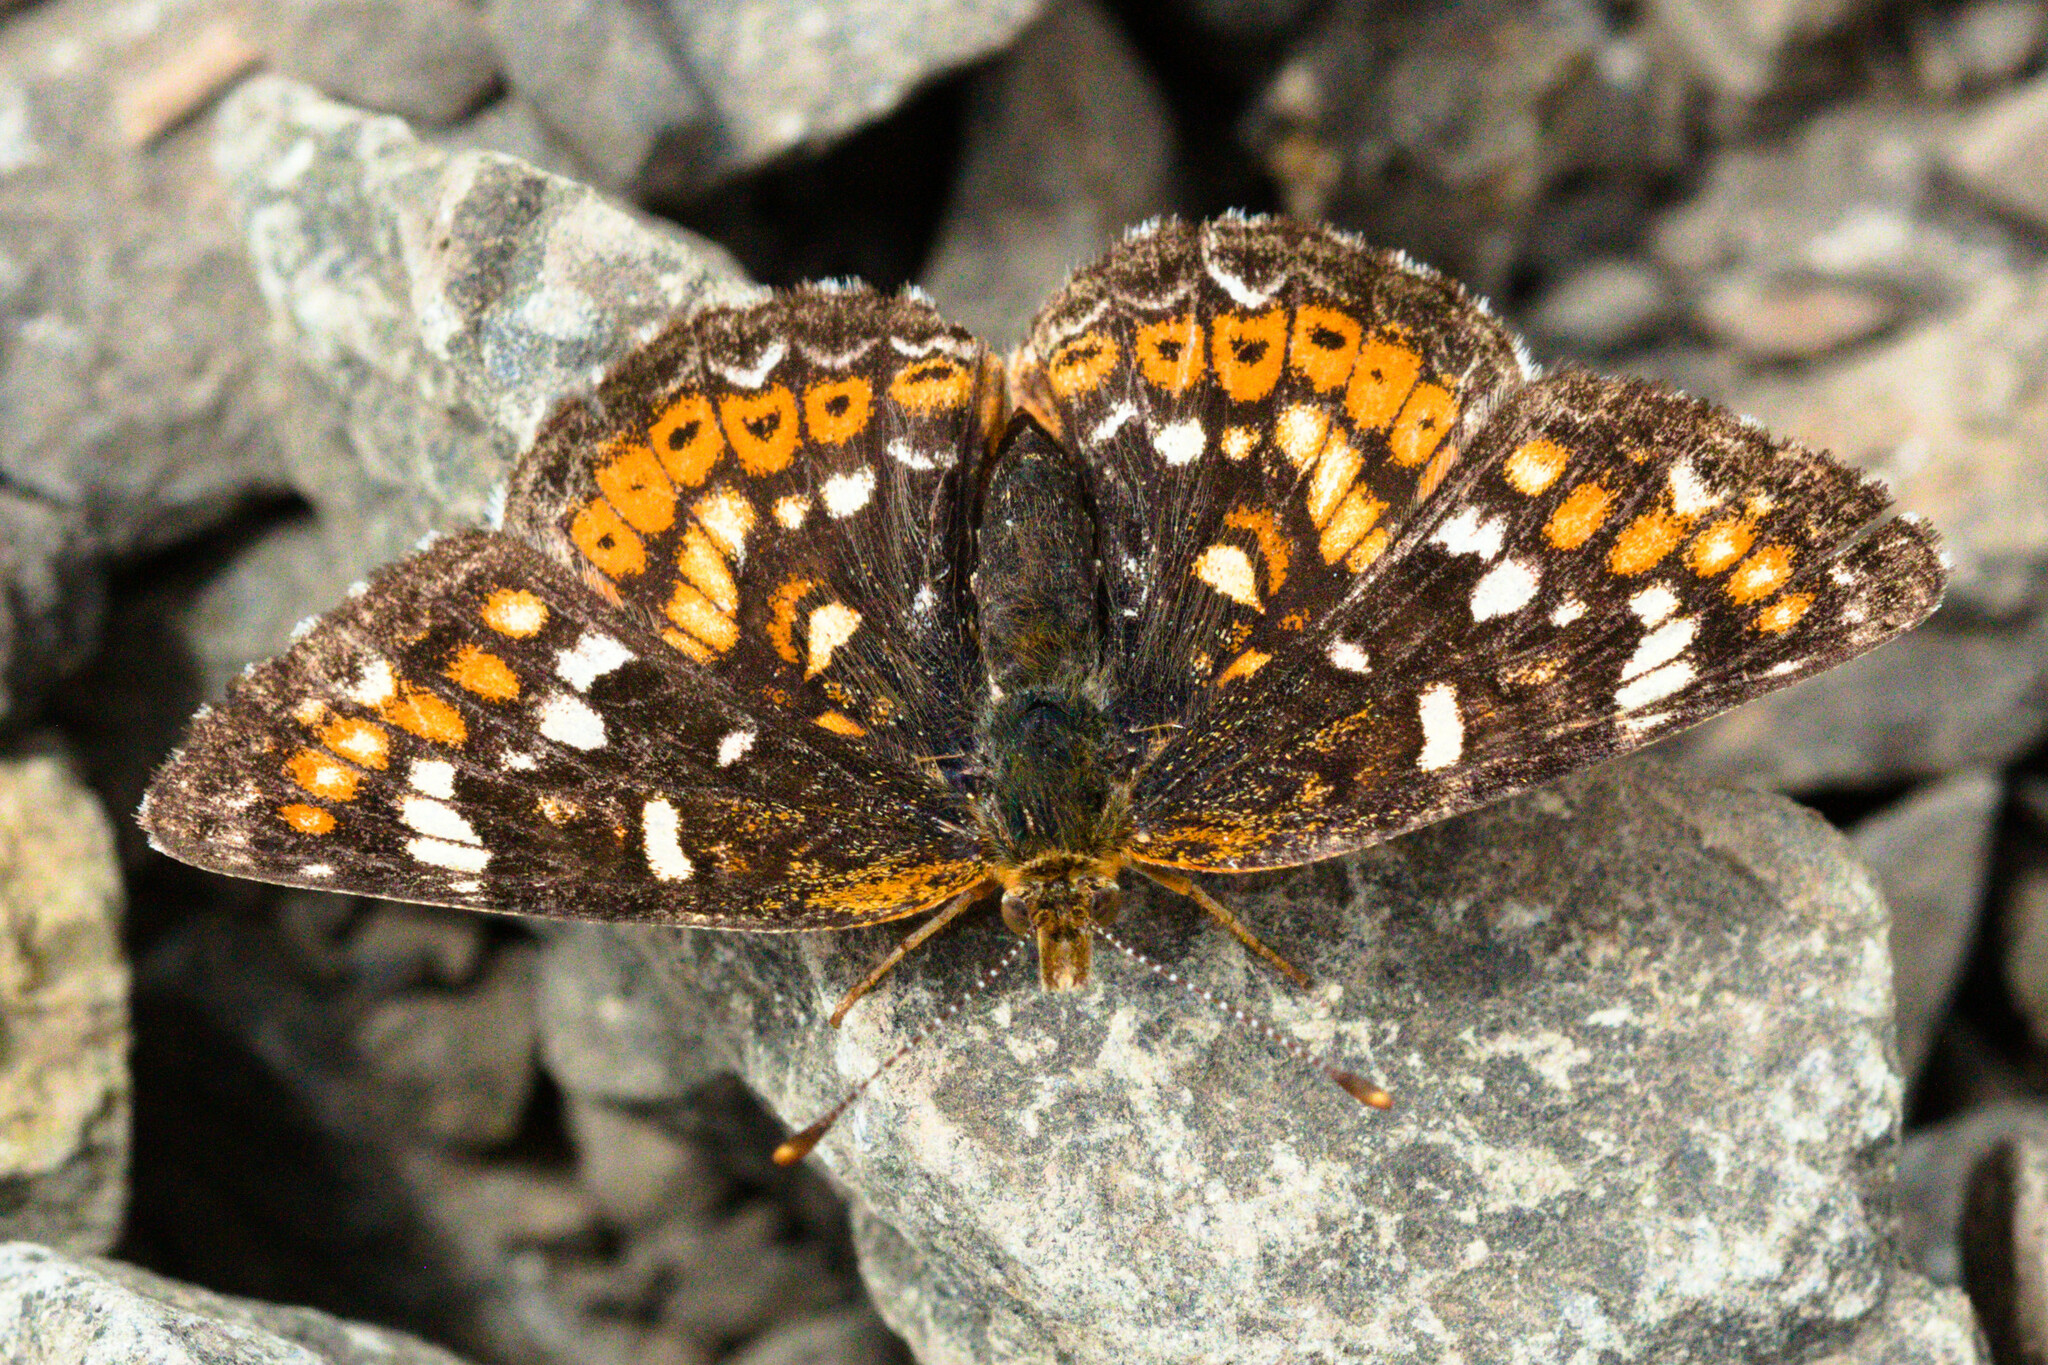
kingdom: Animalia
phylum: Arthropoda
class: Insecta
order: Lepidoptera
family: Nymphalidae
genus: Phyciodes
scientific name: Phyciodes tharos
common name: Pearl crescent
